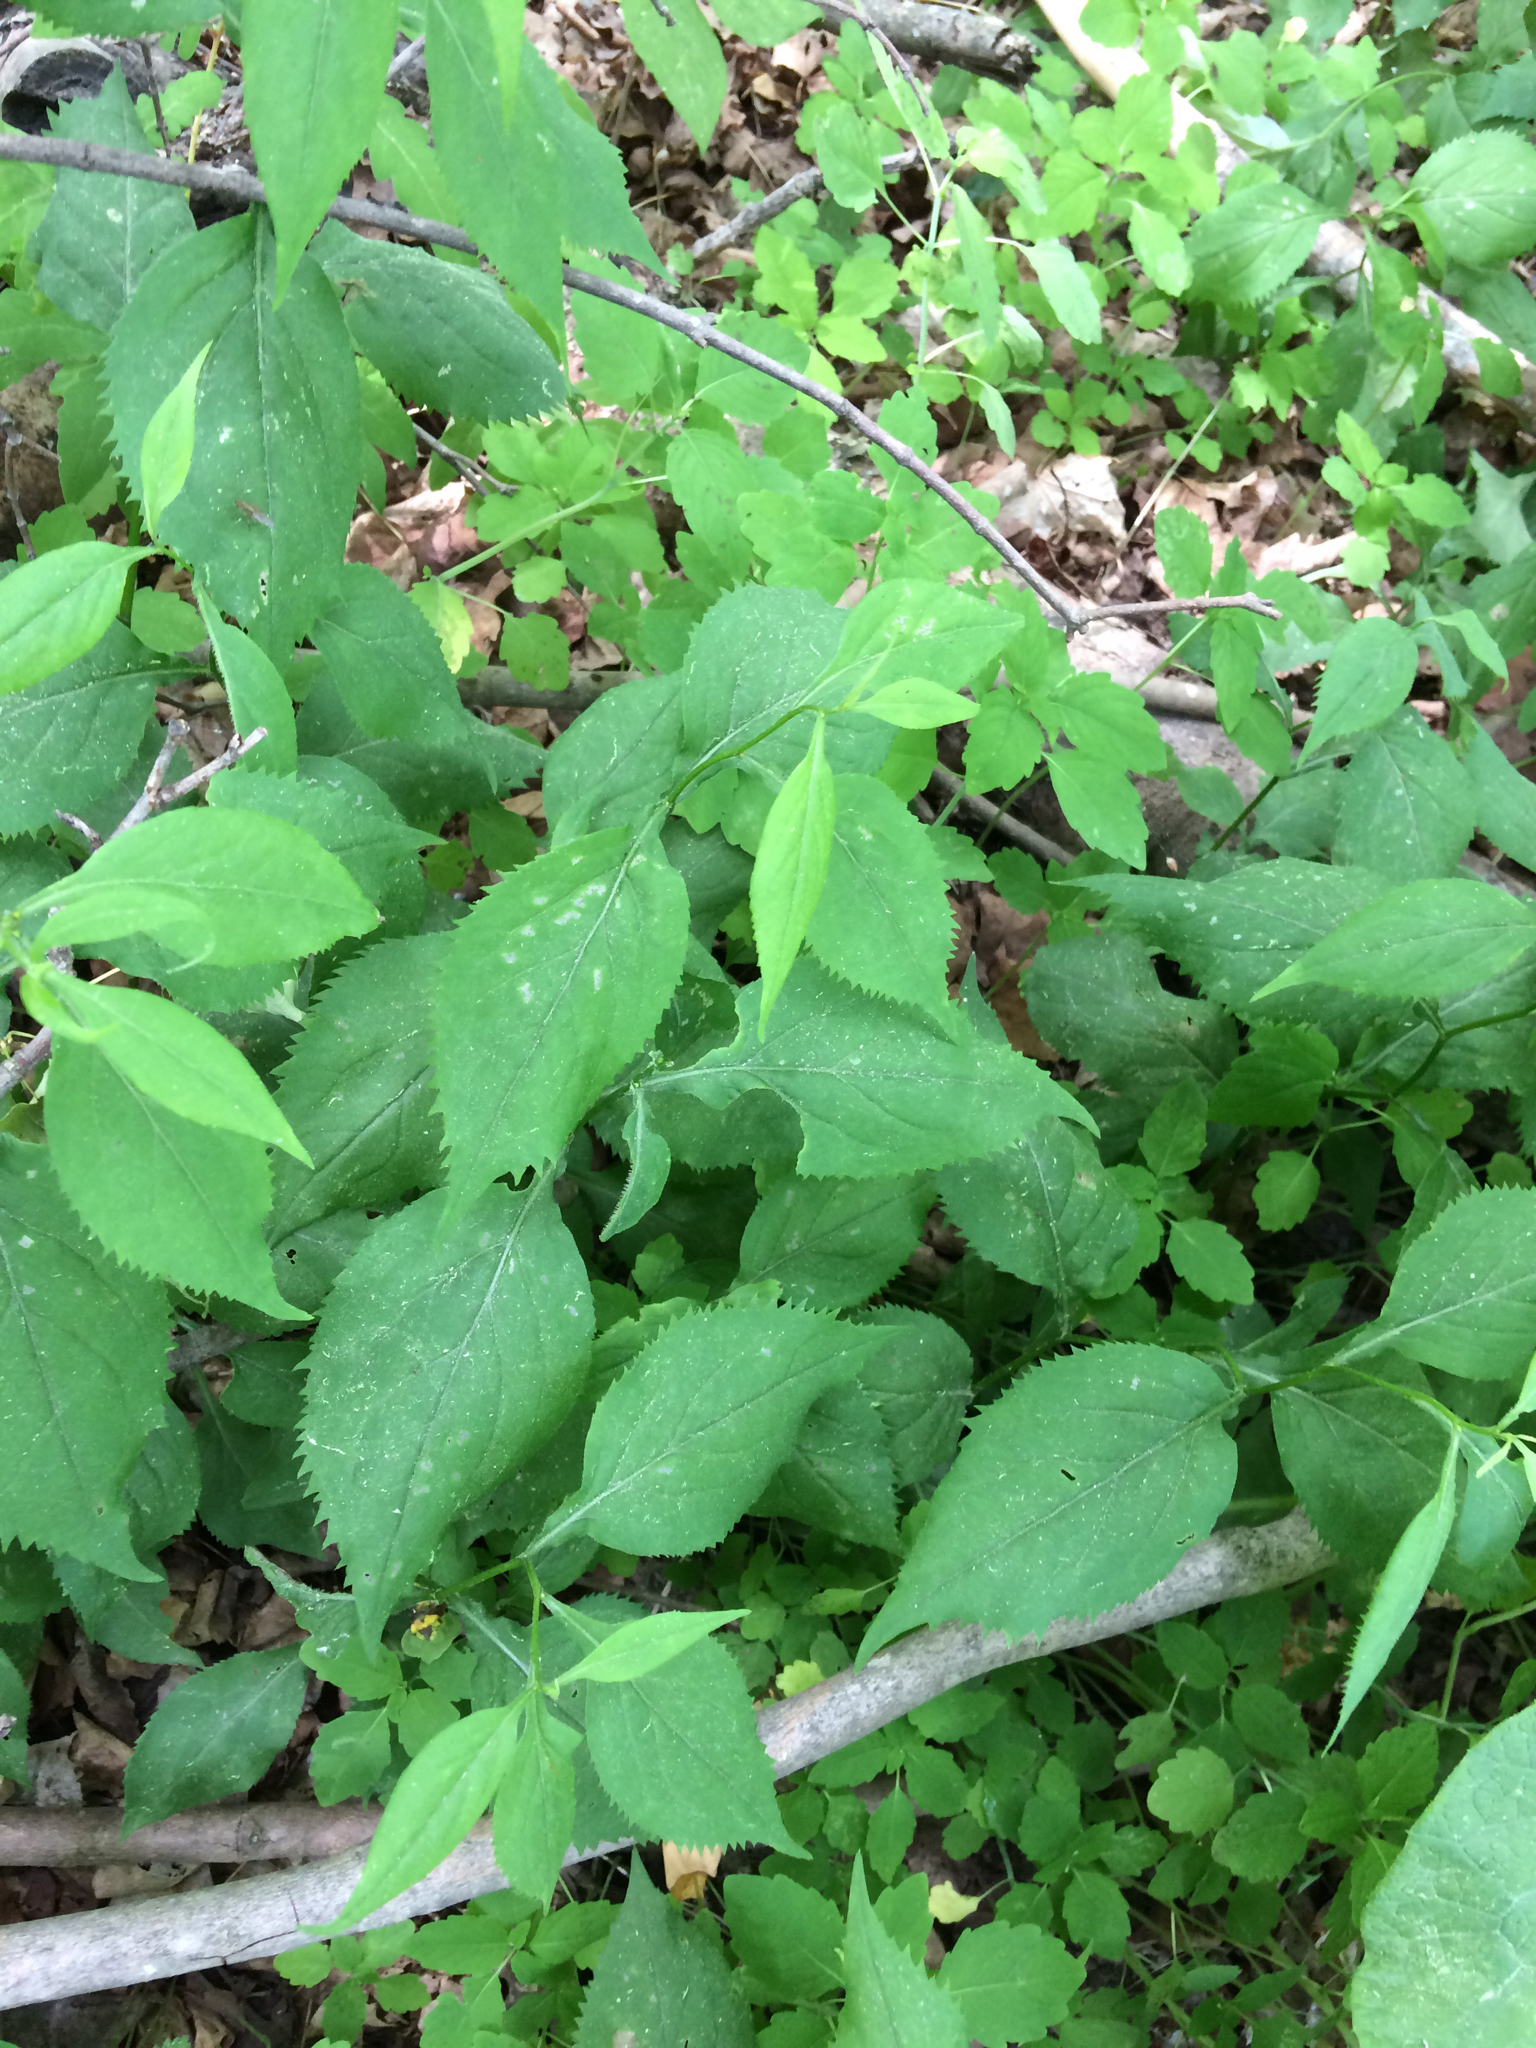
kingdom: Plantae
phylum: Tracheophyta
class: Magnoliopsida
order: Asterales
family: Asteraceae
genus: Solidago
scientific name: Solidago flexicaulis
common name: Zig-zag goldenrod
